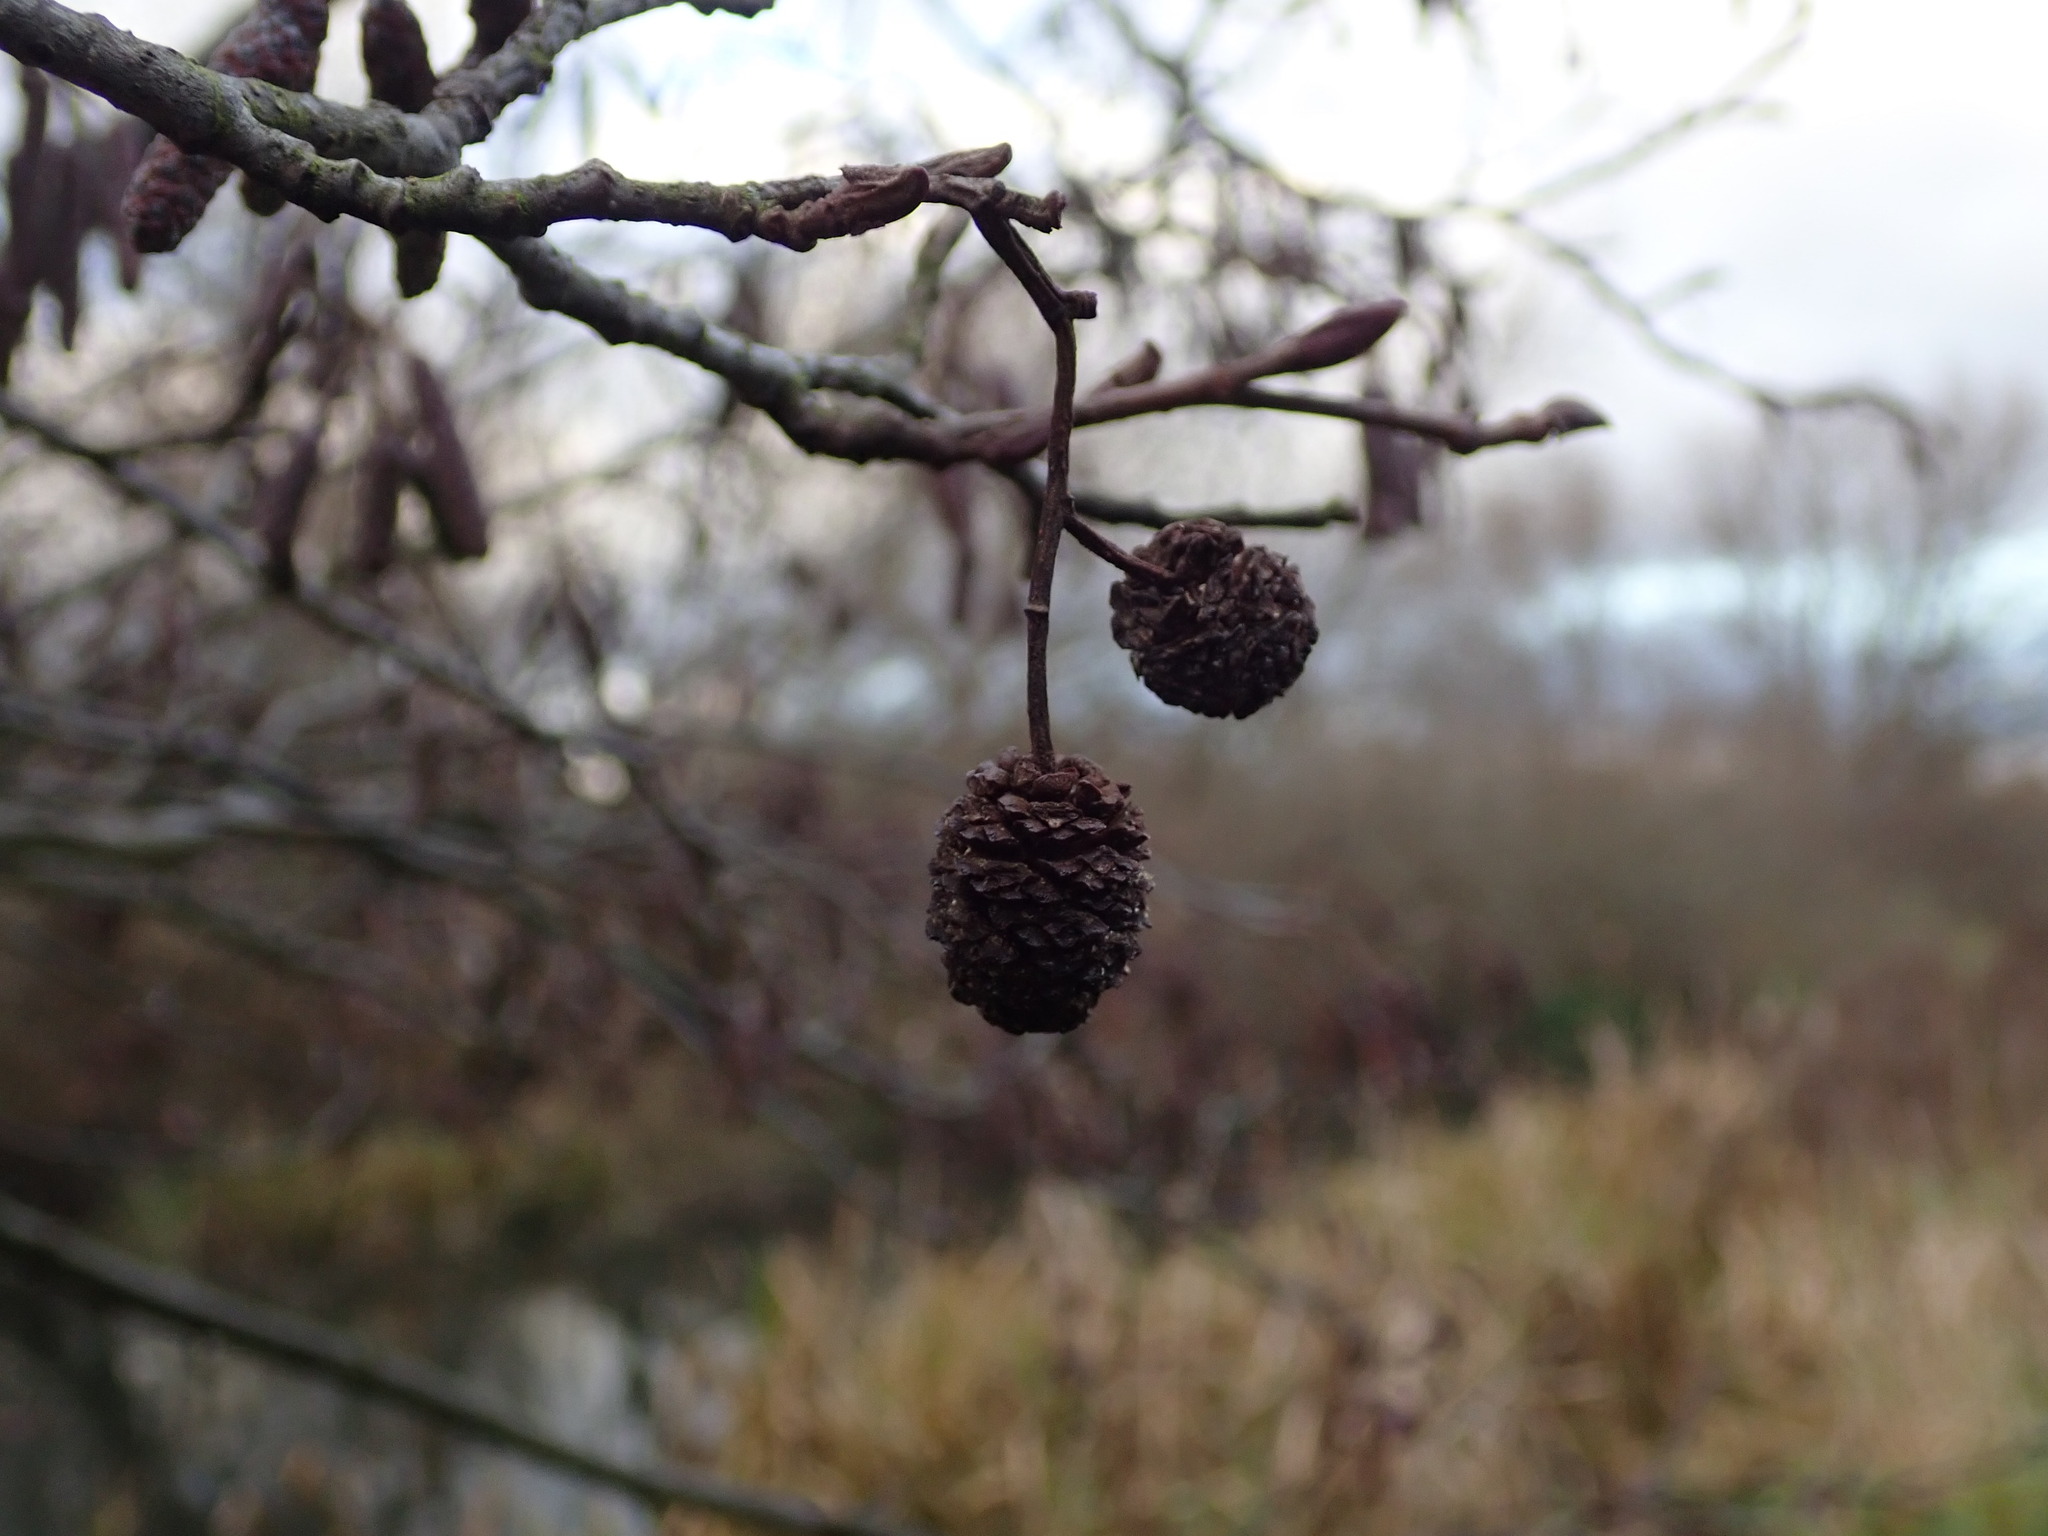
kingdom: Plantae
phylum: Tracheophyta
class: Magnoliopsida
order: Fagales
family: Betulaceae
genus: Alnus
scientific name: Alnus glutinosa
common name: Black alder
